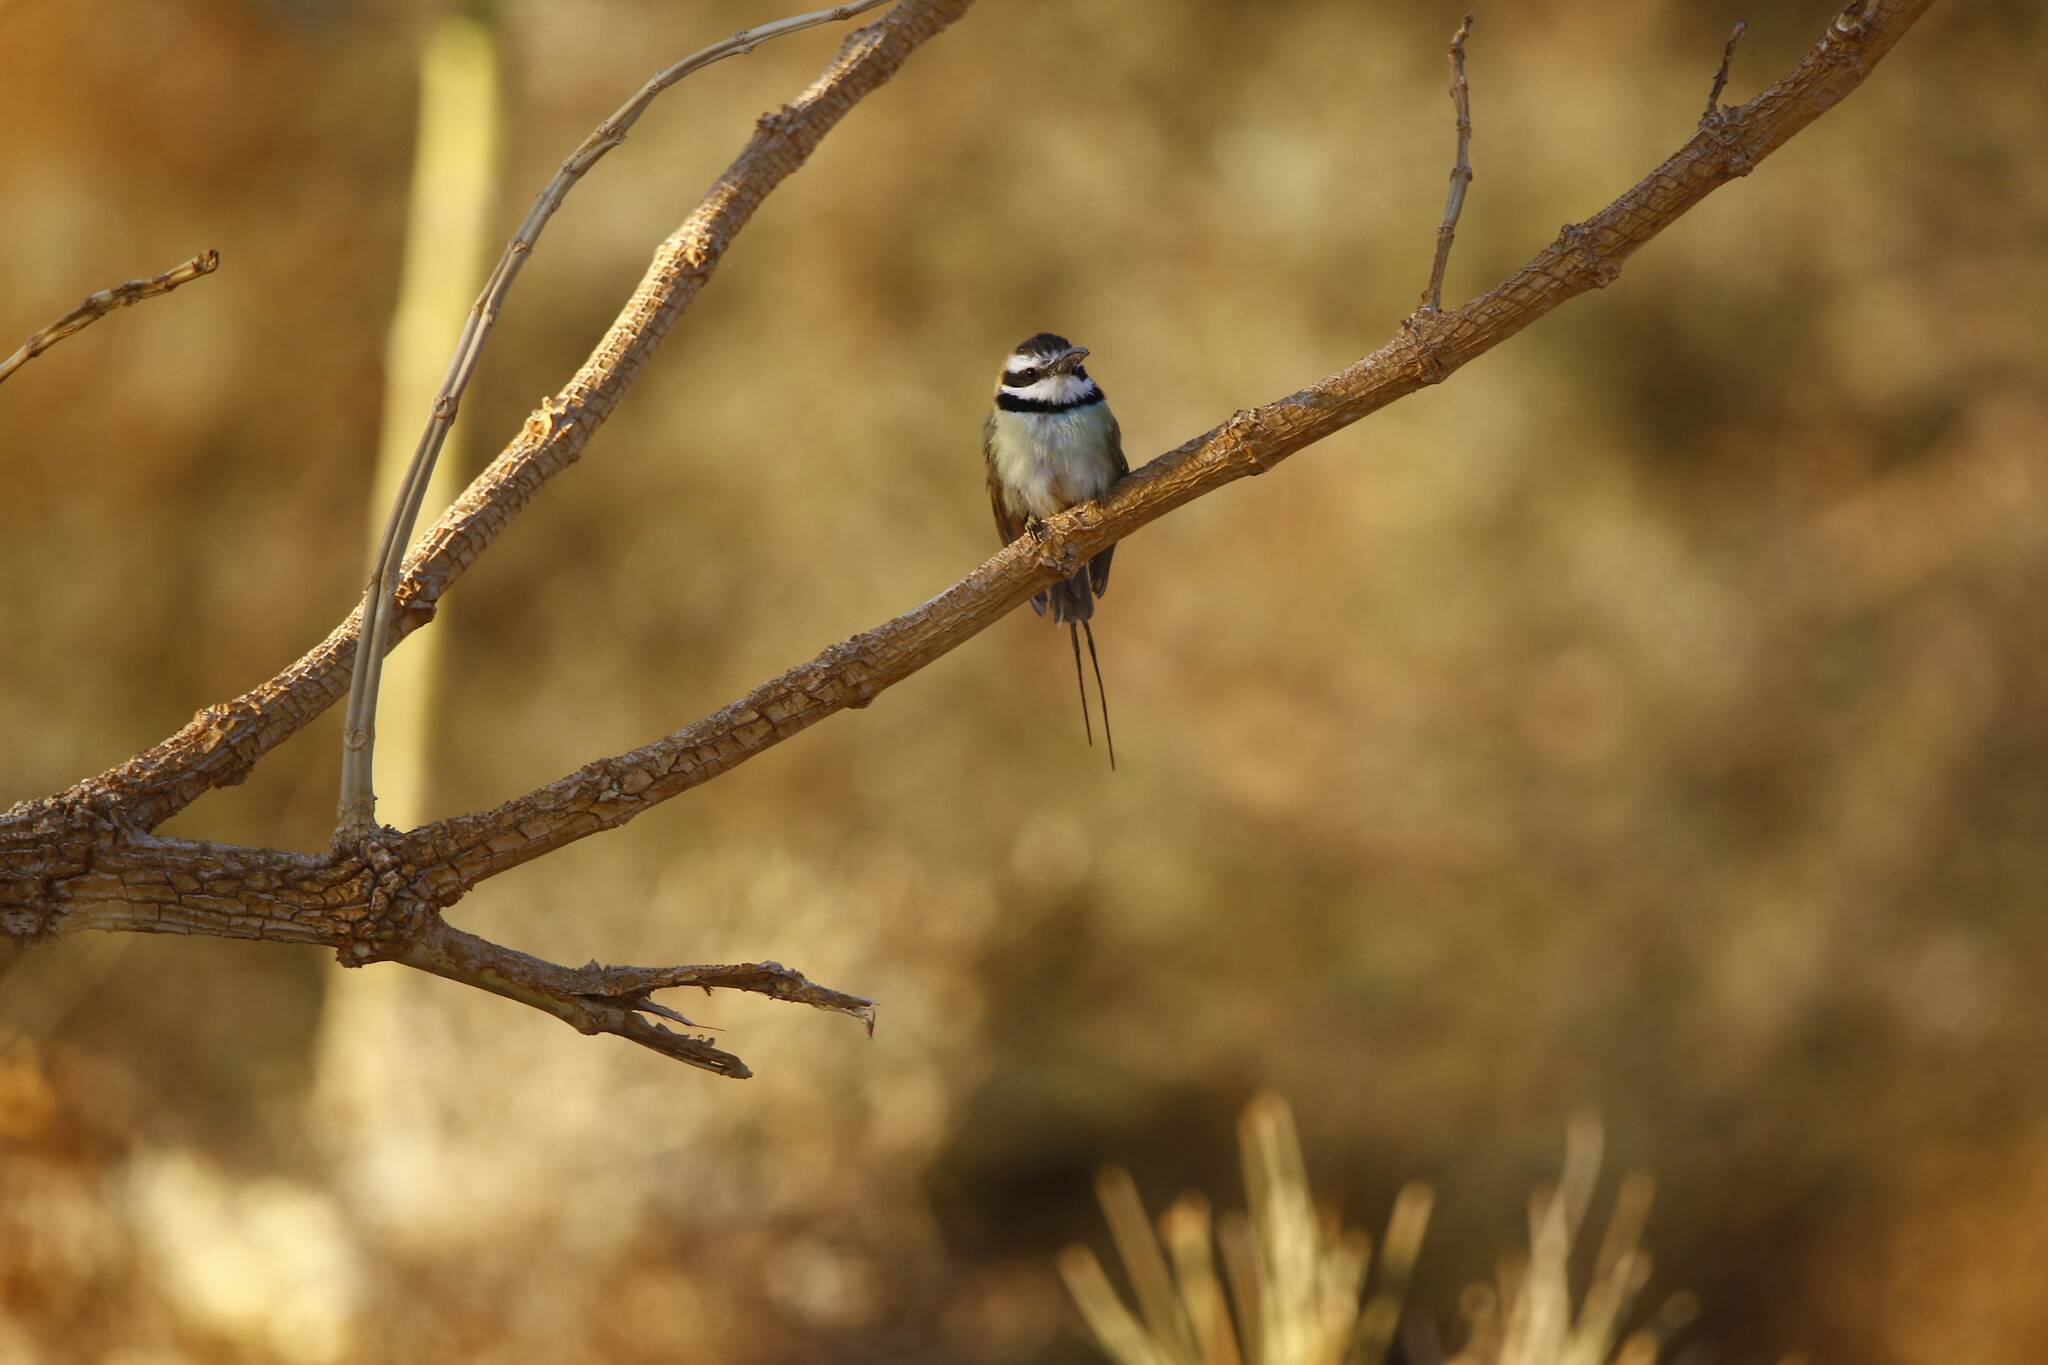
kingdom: Animalia
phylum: Chordata
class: Aves
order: Coraciiformes
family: Meropidae
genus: Merops
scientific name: Merops albicollis
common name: White-throated bee-eater
